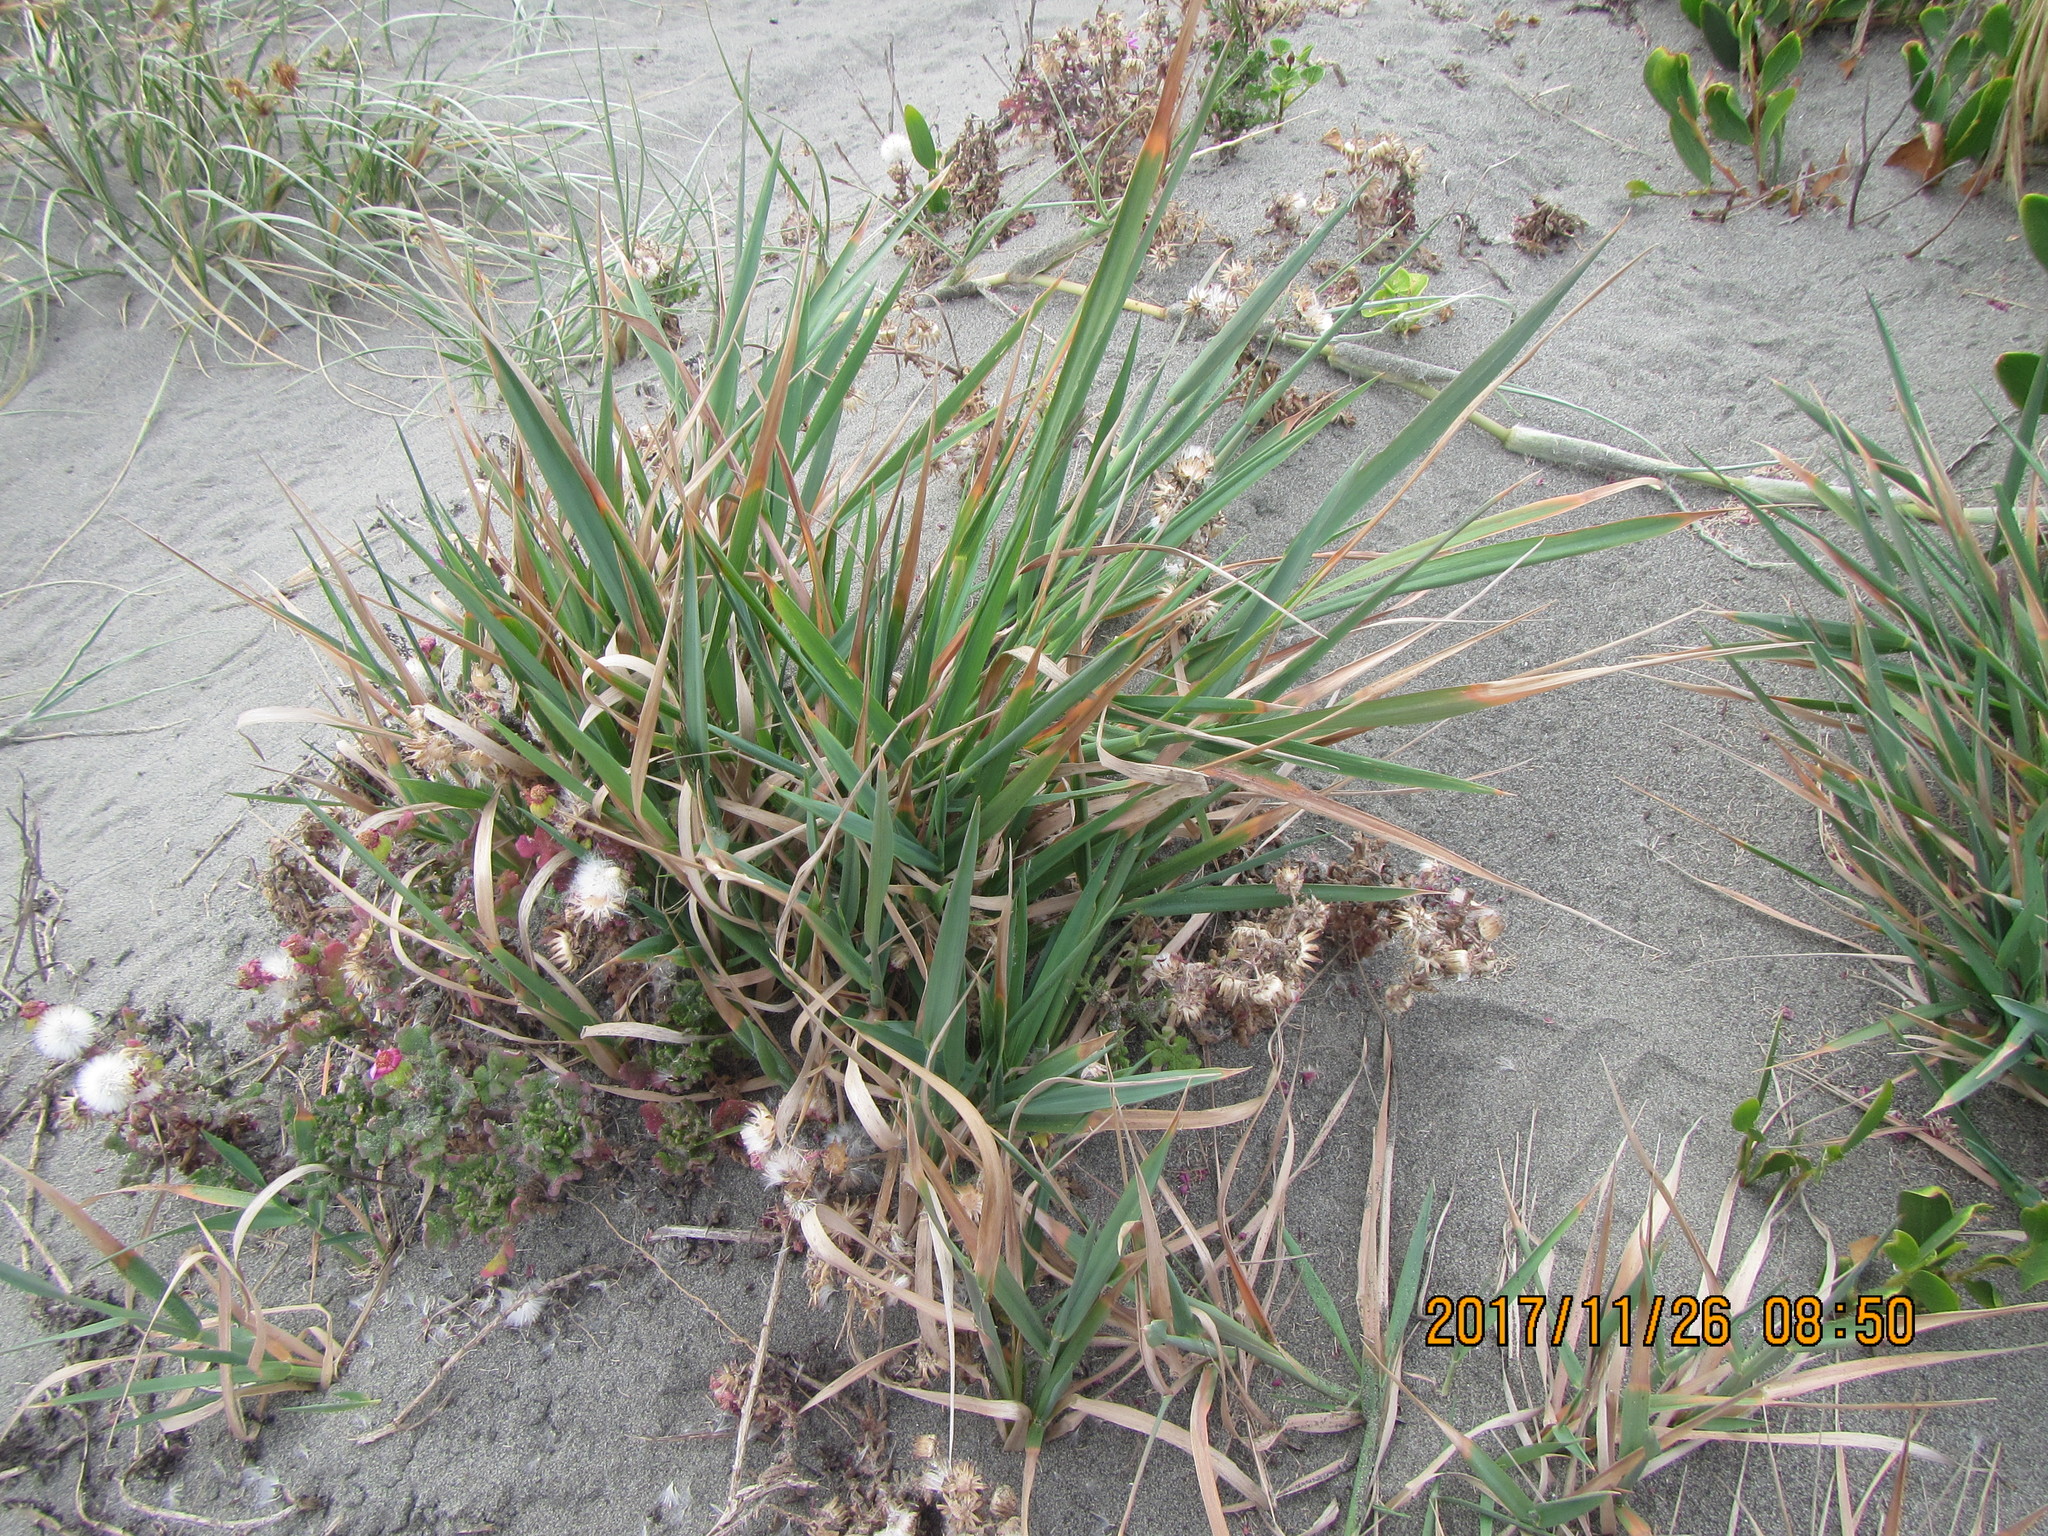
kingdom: Plantae
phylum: Tracheophyta
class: Liliopsida
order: Poales
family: Poaceae
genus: Lachnagrostis
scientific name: Lachnagrostis billardierei
